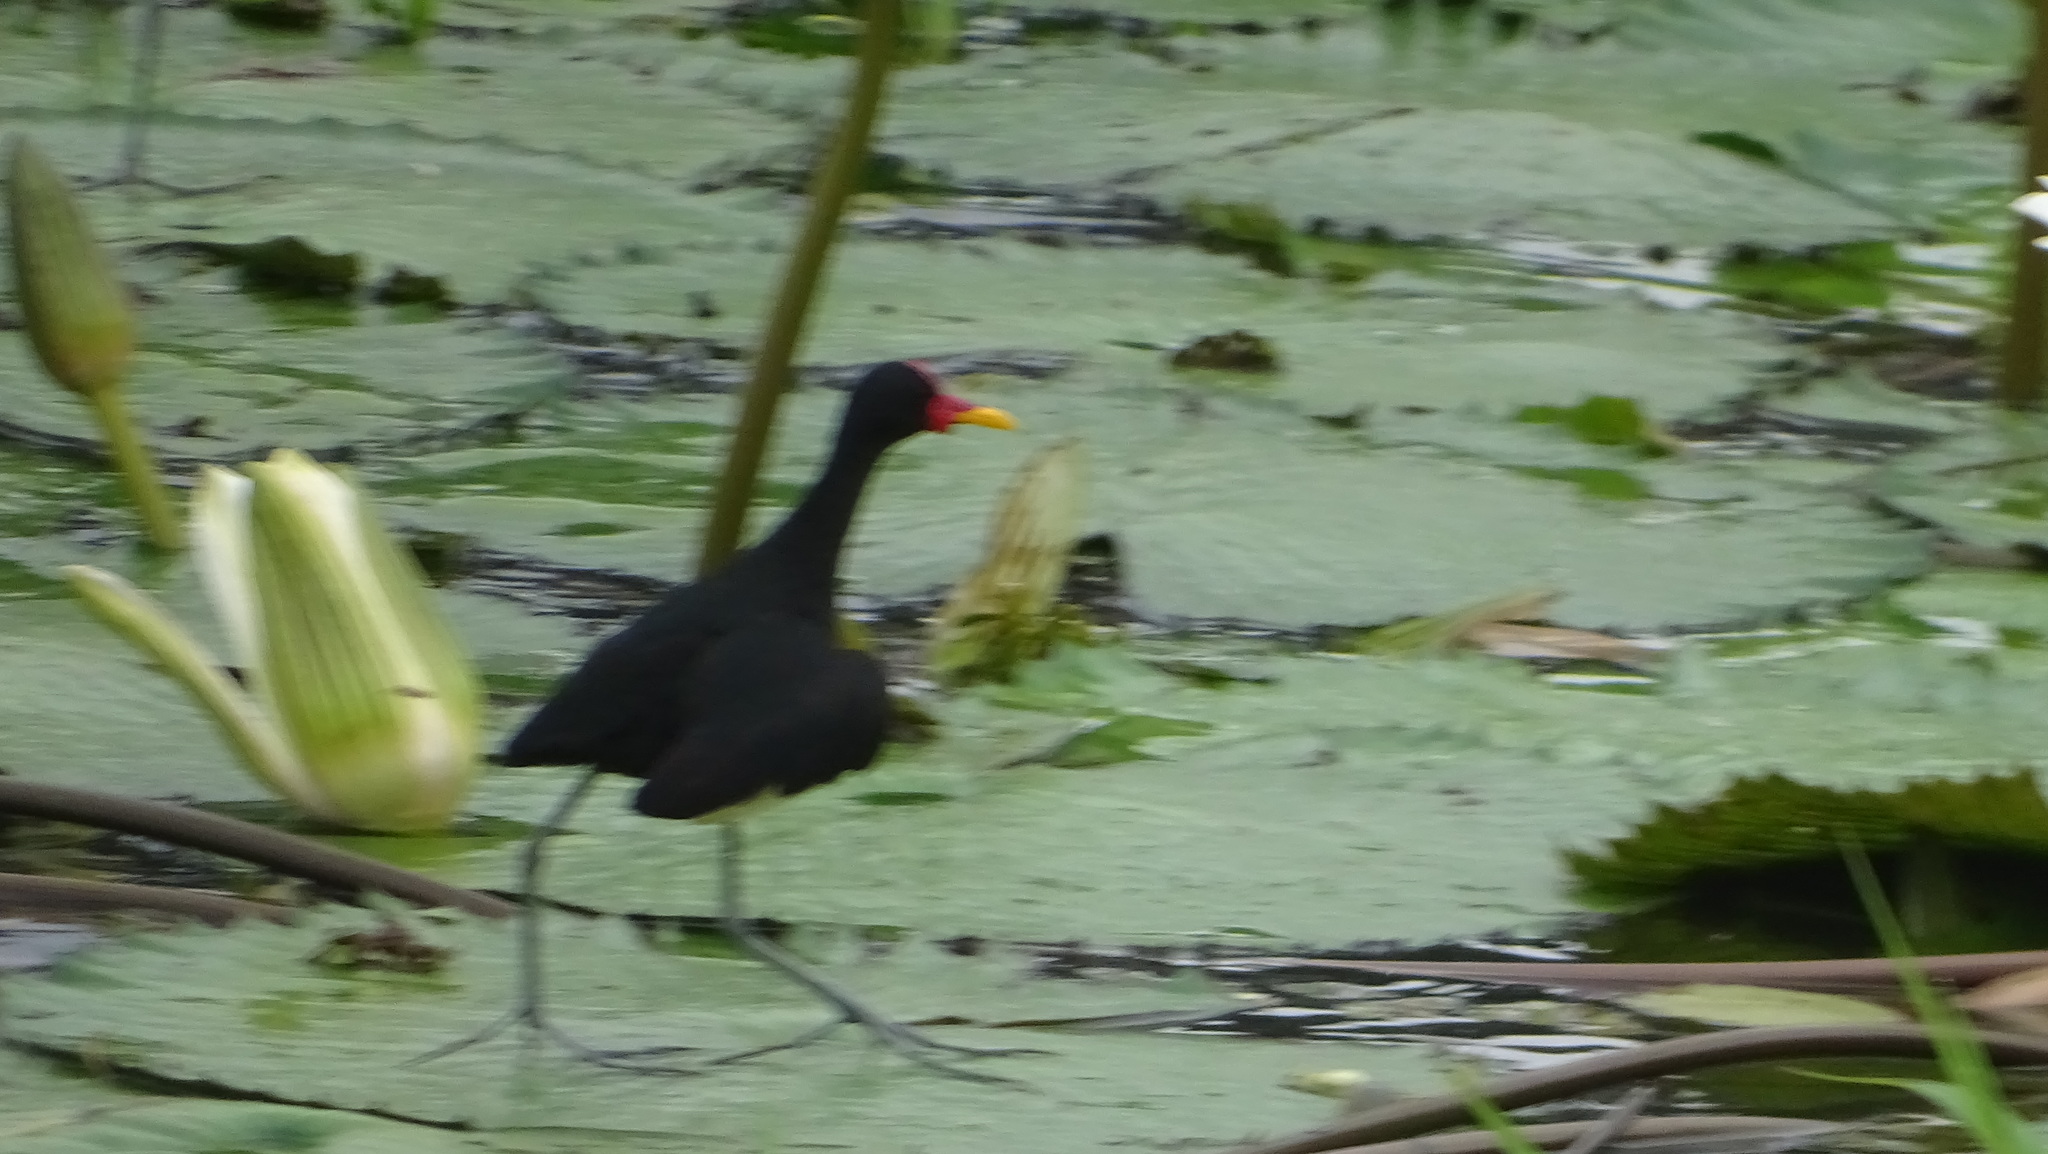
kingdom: Animalia
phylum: Chordata
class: Aves
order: Charadriiformes
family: Jacanidae
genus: Jacana
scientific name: Jacana jacana
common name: Wattled jacana
